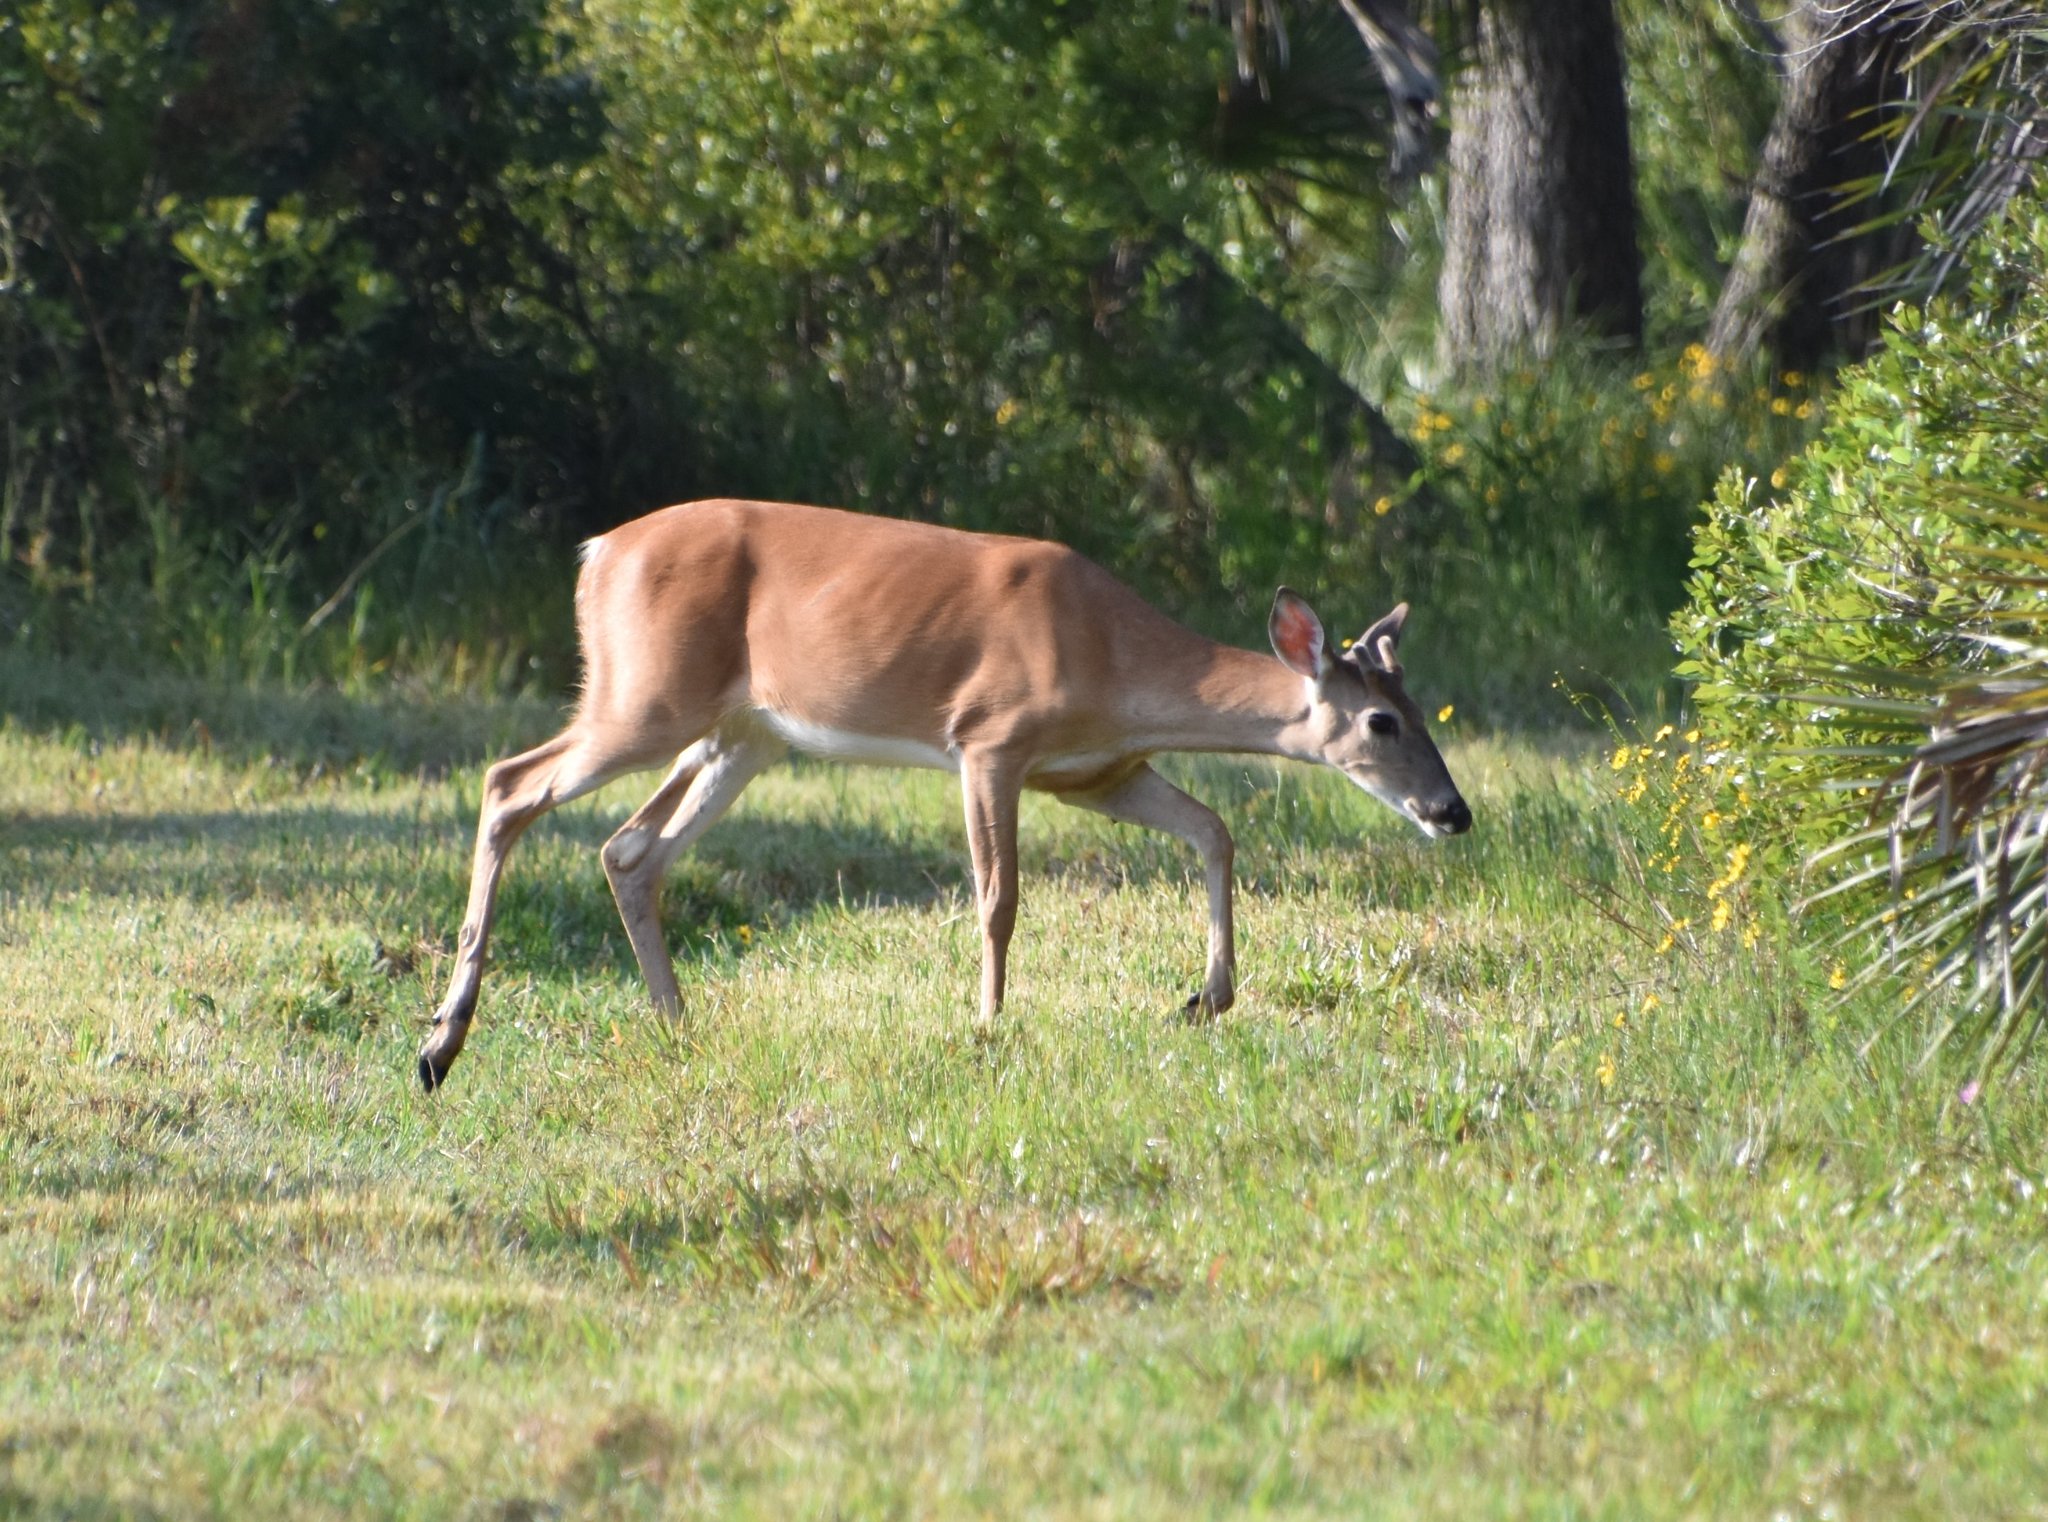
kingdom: Animalia
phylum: Chordata
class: Mammalia
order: Artiodactyla
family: Cervidae
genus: Odocoileus
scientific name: Odocoileus virginianus
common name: White-tailed deer
